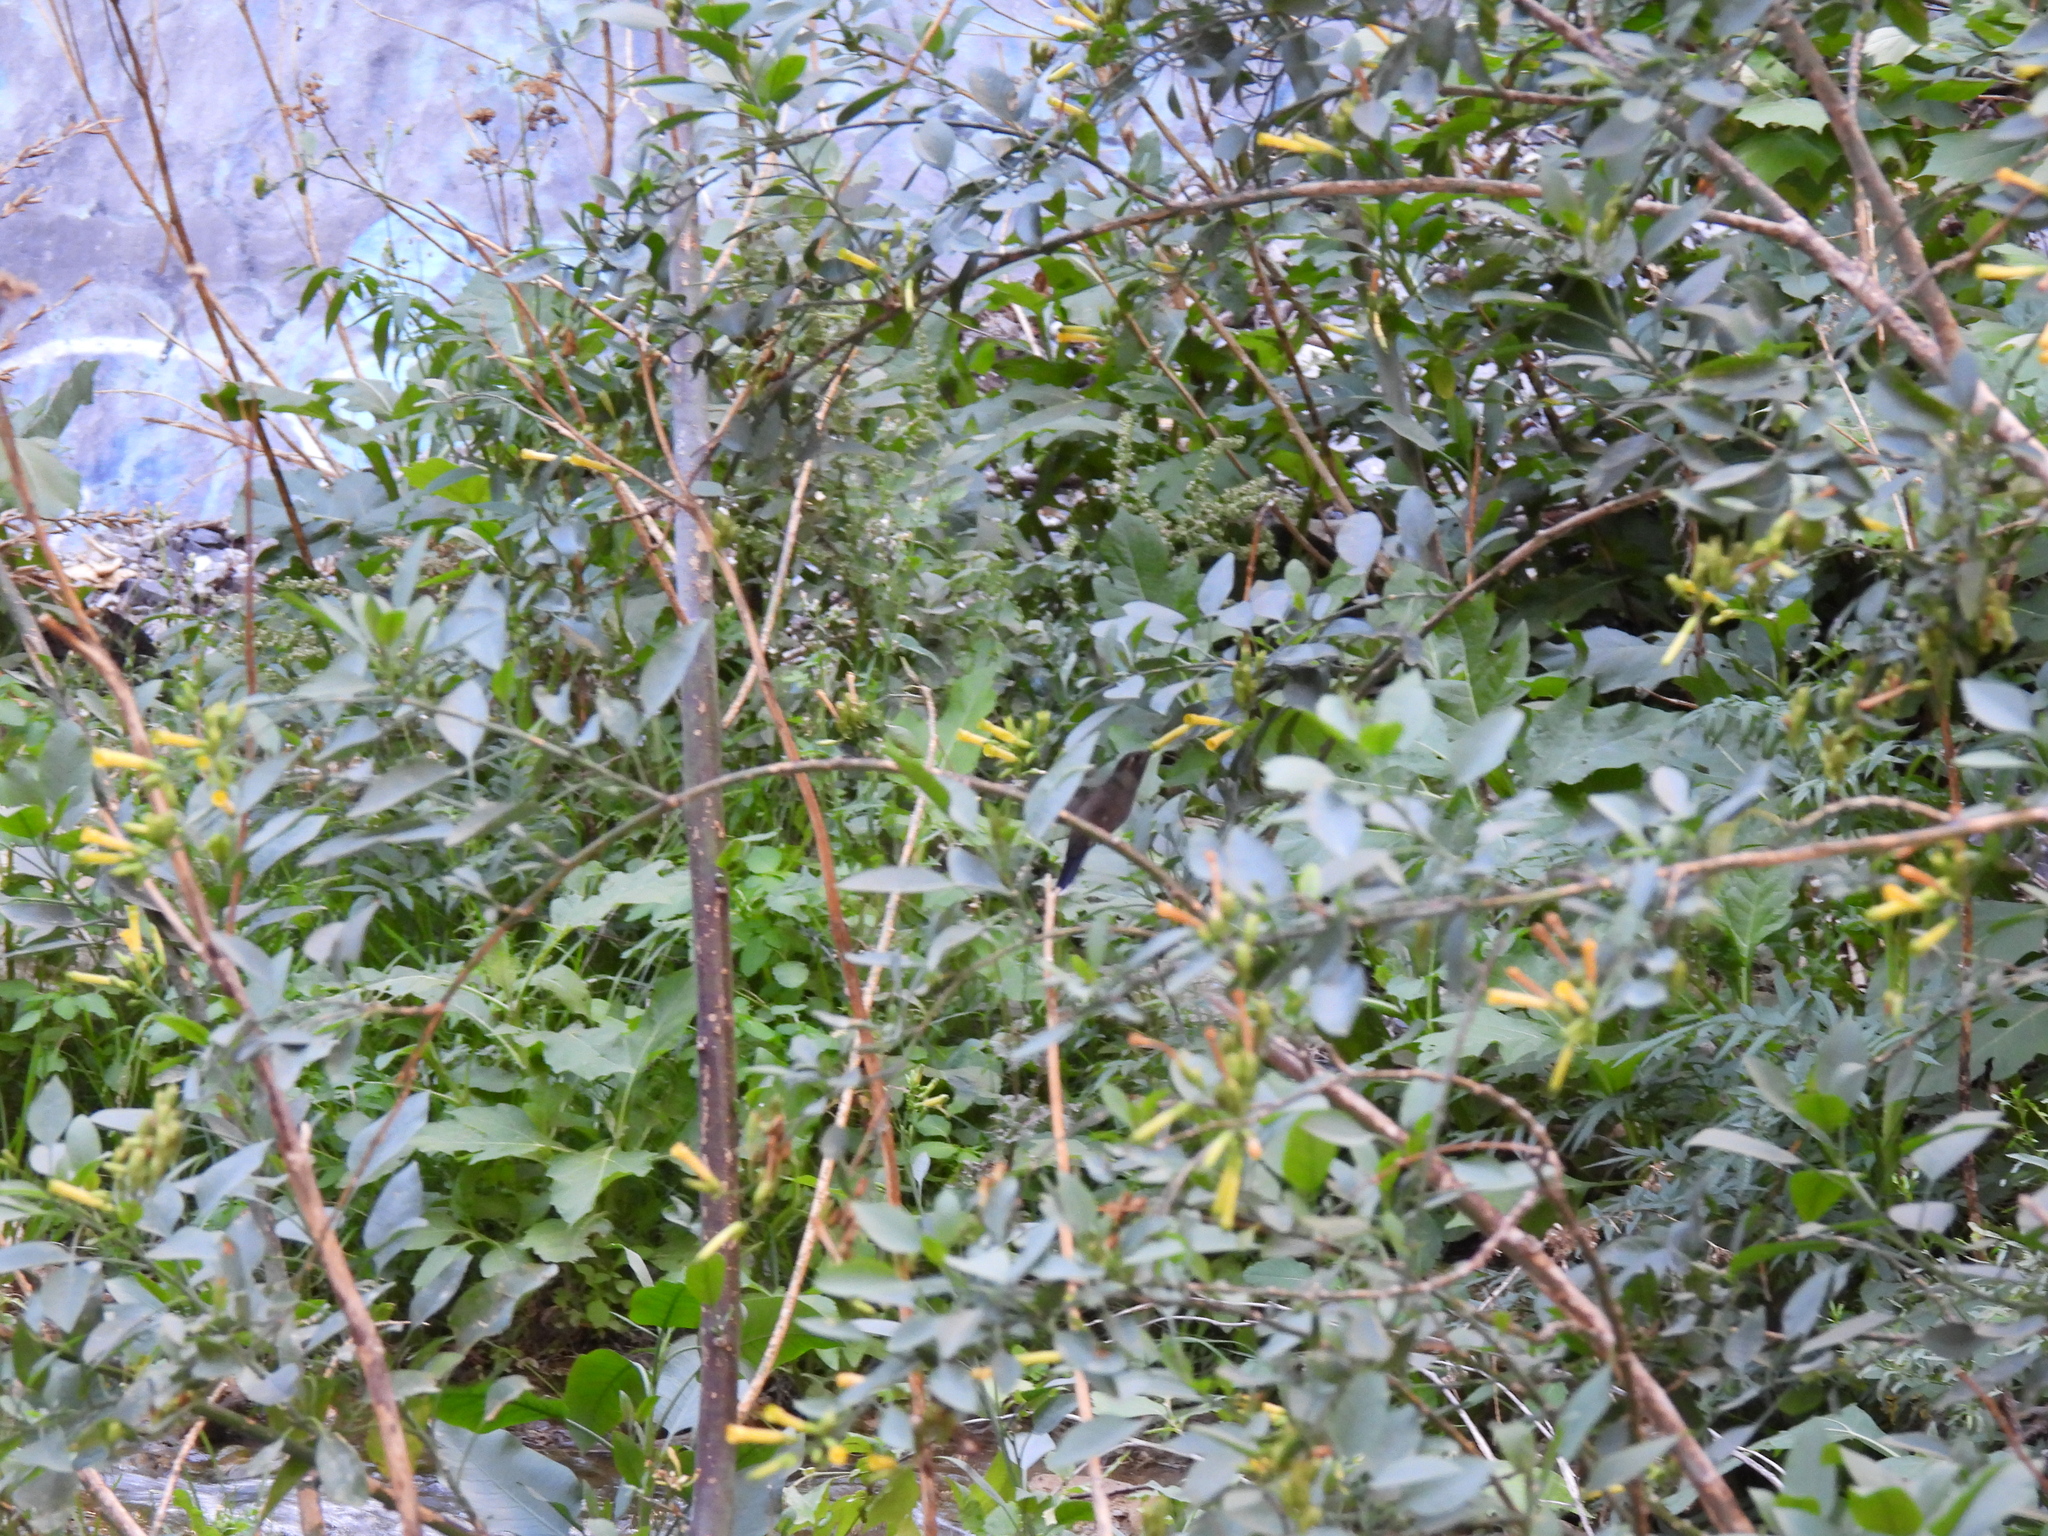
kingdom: Animalia
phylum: Chordata
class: Aves
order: Apodiformes
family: Trochilidae
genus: Lampornis
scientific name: Lampornis clemenciae
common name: Blue-throated mountaingem
